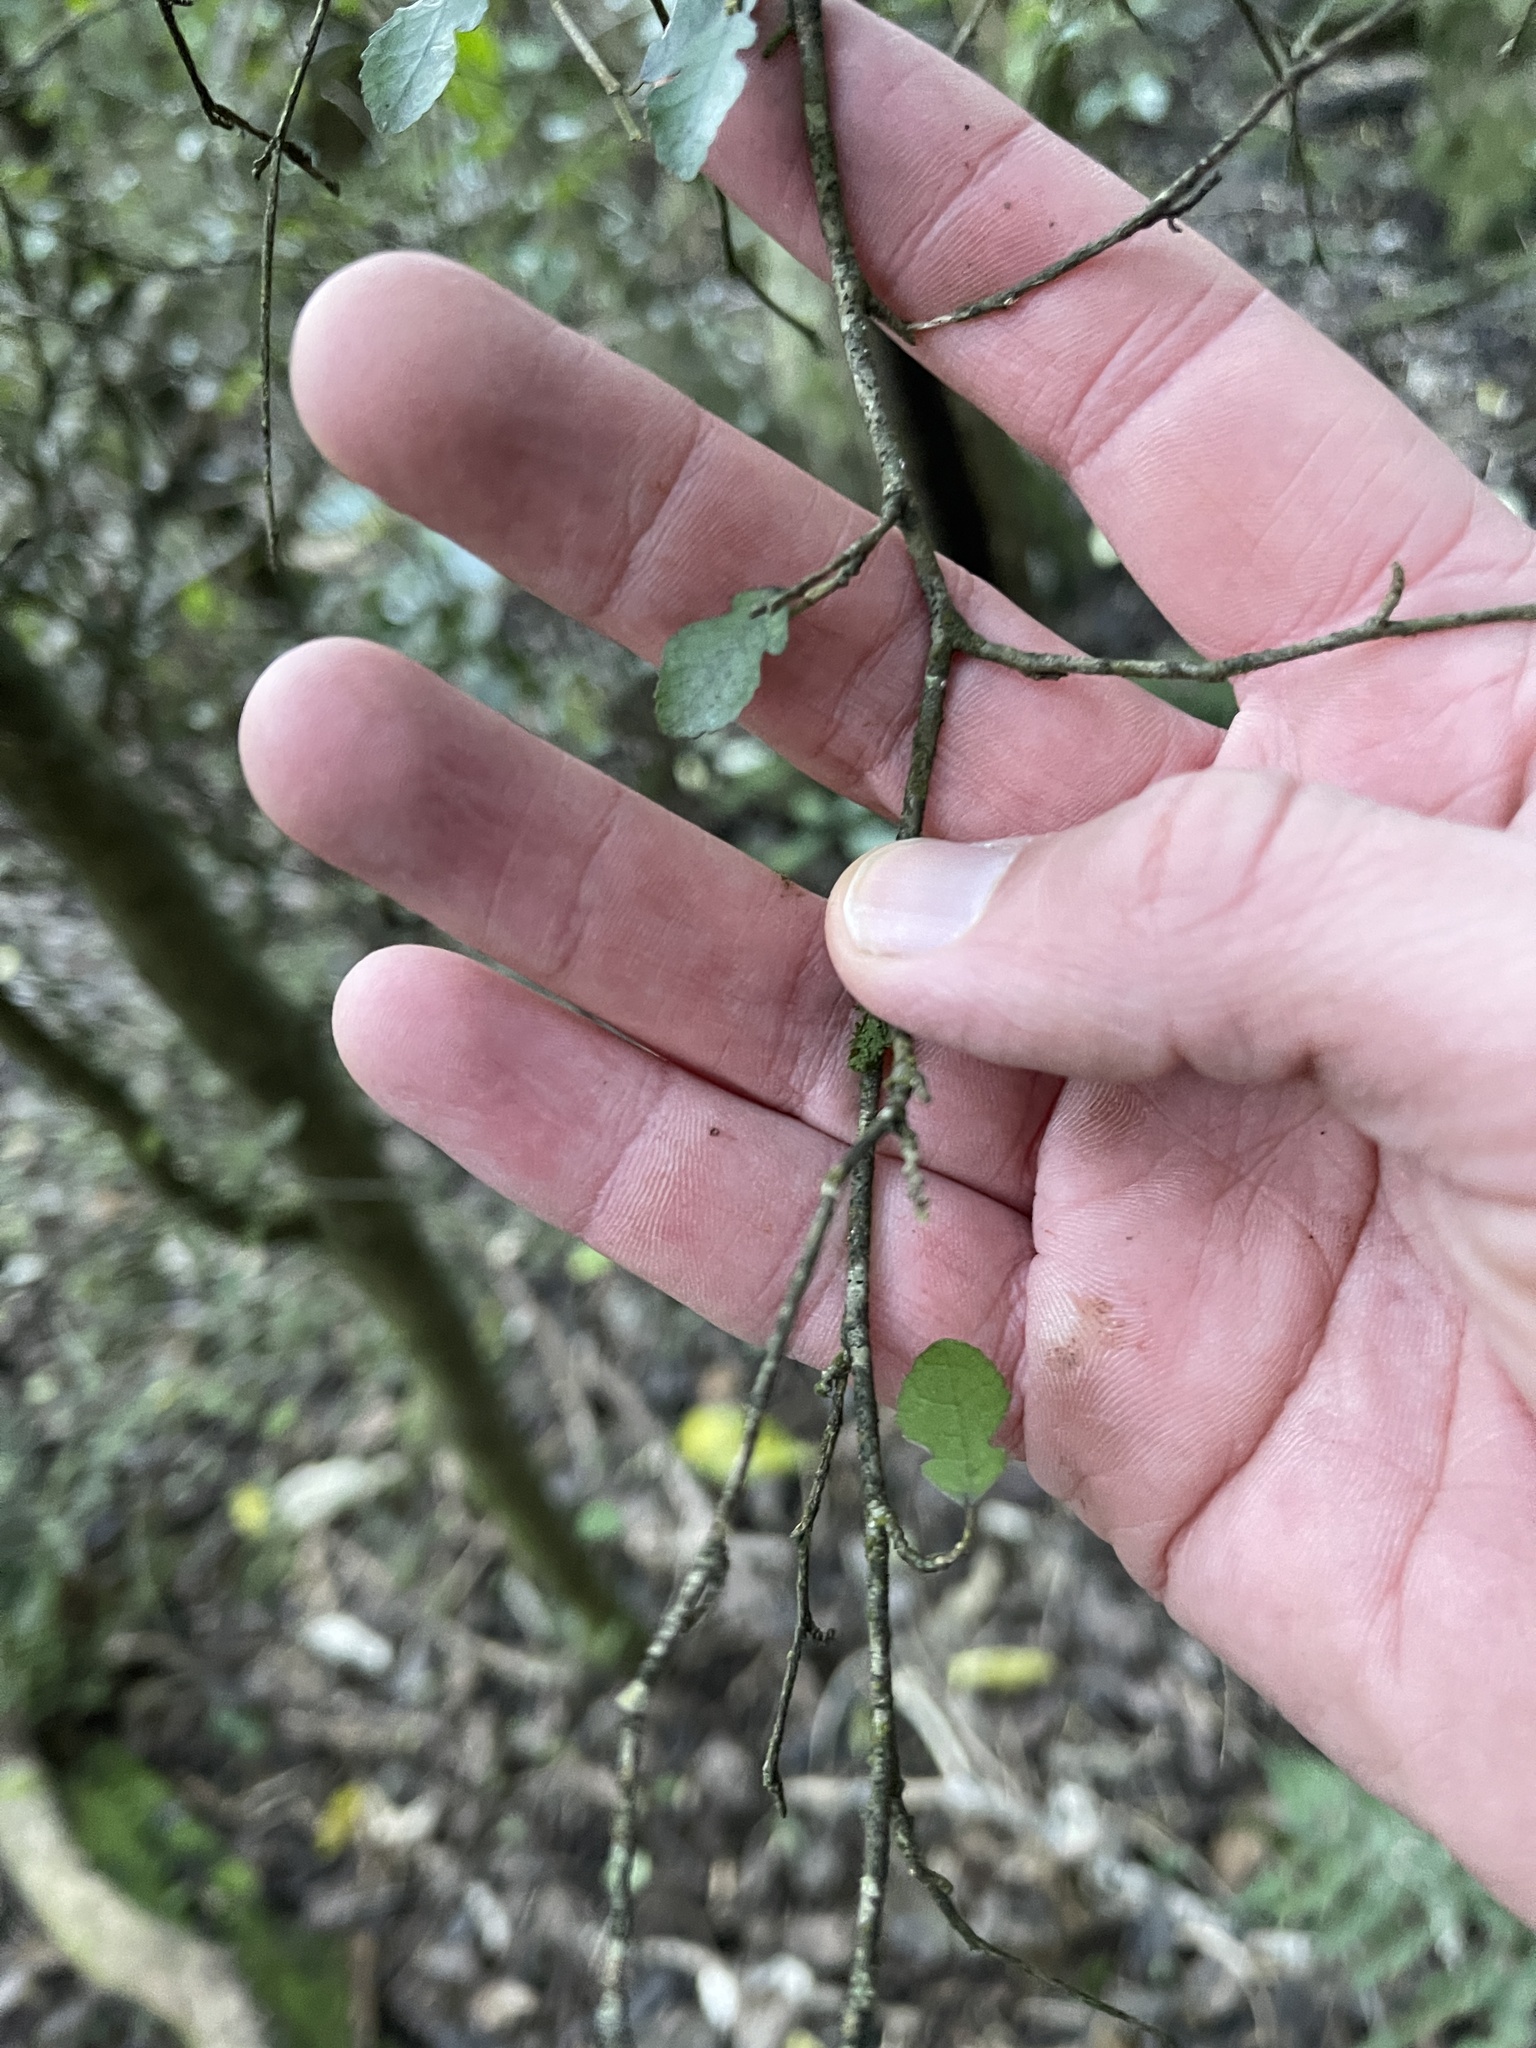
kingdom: Plantae
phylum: Tracheophyta
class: Magnoliopsida
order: Rosales
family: Moraceae
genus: Paratrophis
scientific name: Paratrophis microphylla
